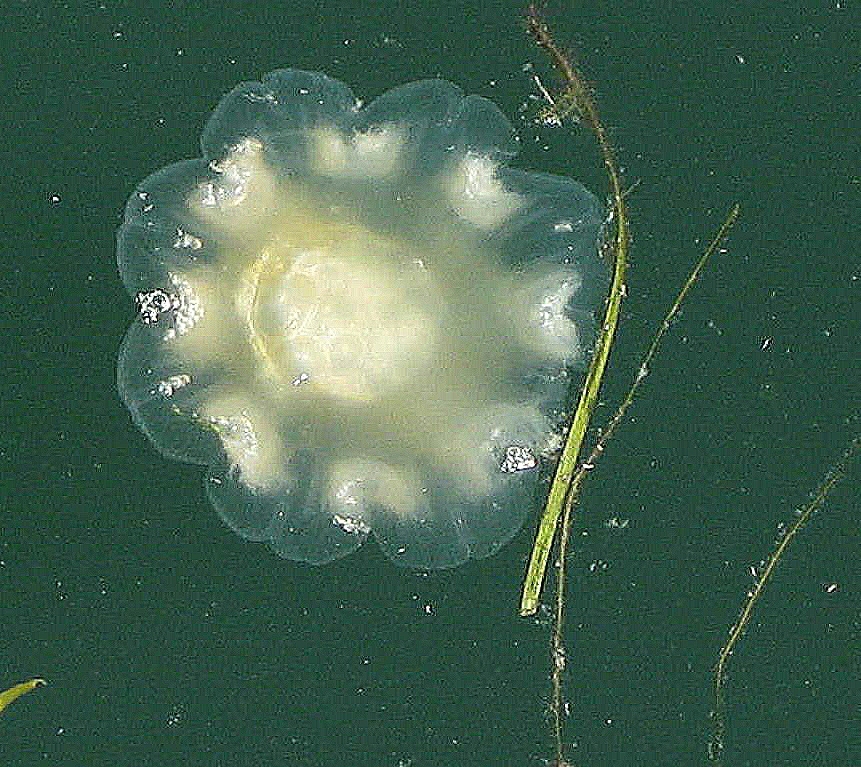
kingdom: Animalia
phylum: Cnidaria
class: Scyphozoa
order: Semaeostomeae
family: Cyaneidae
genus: Cyanea
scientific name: Cyanea capillata
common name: Lion's mane jellyfish
